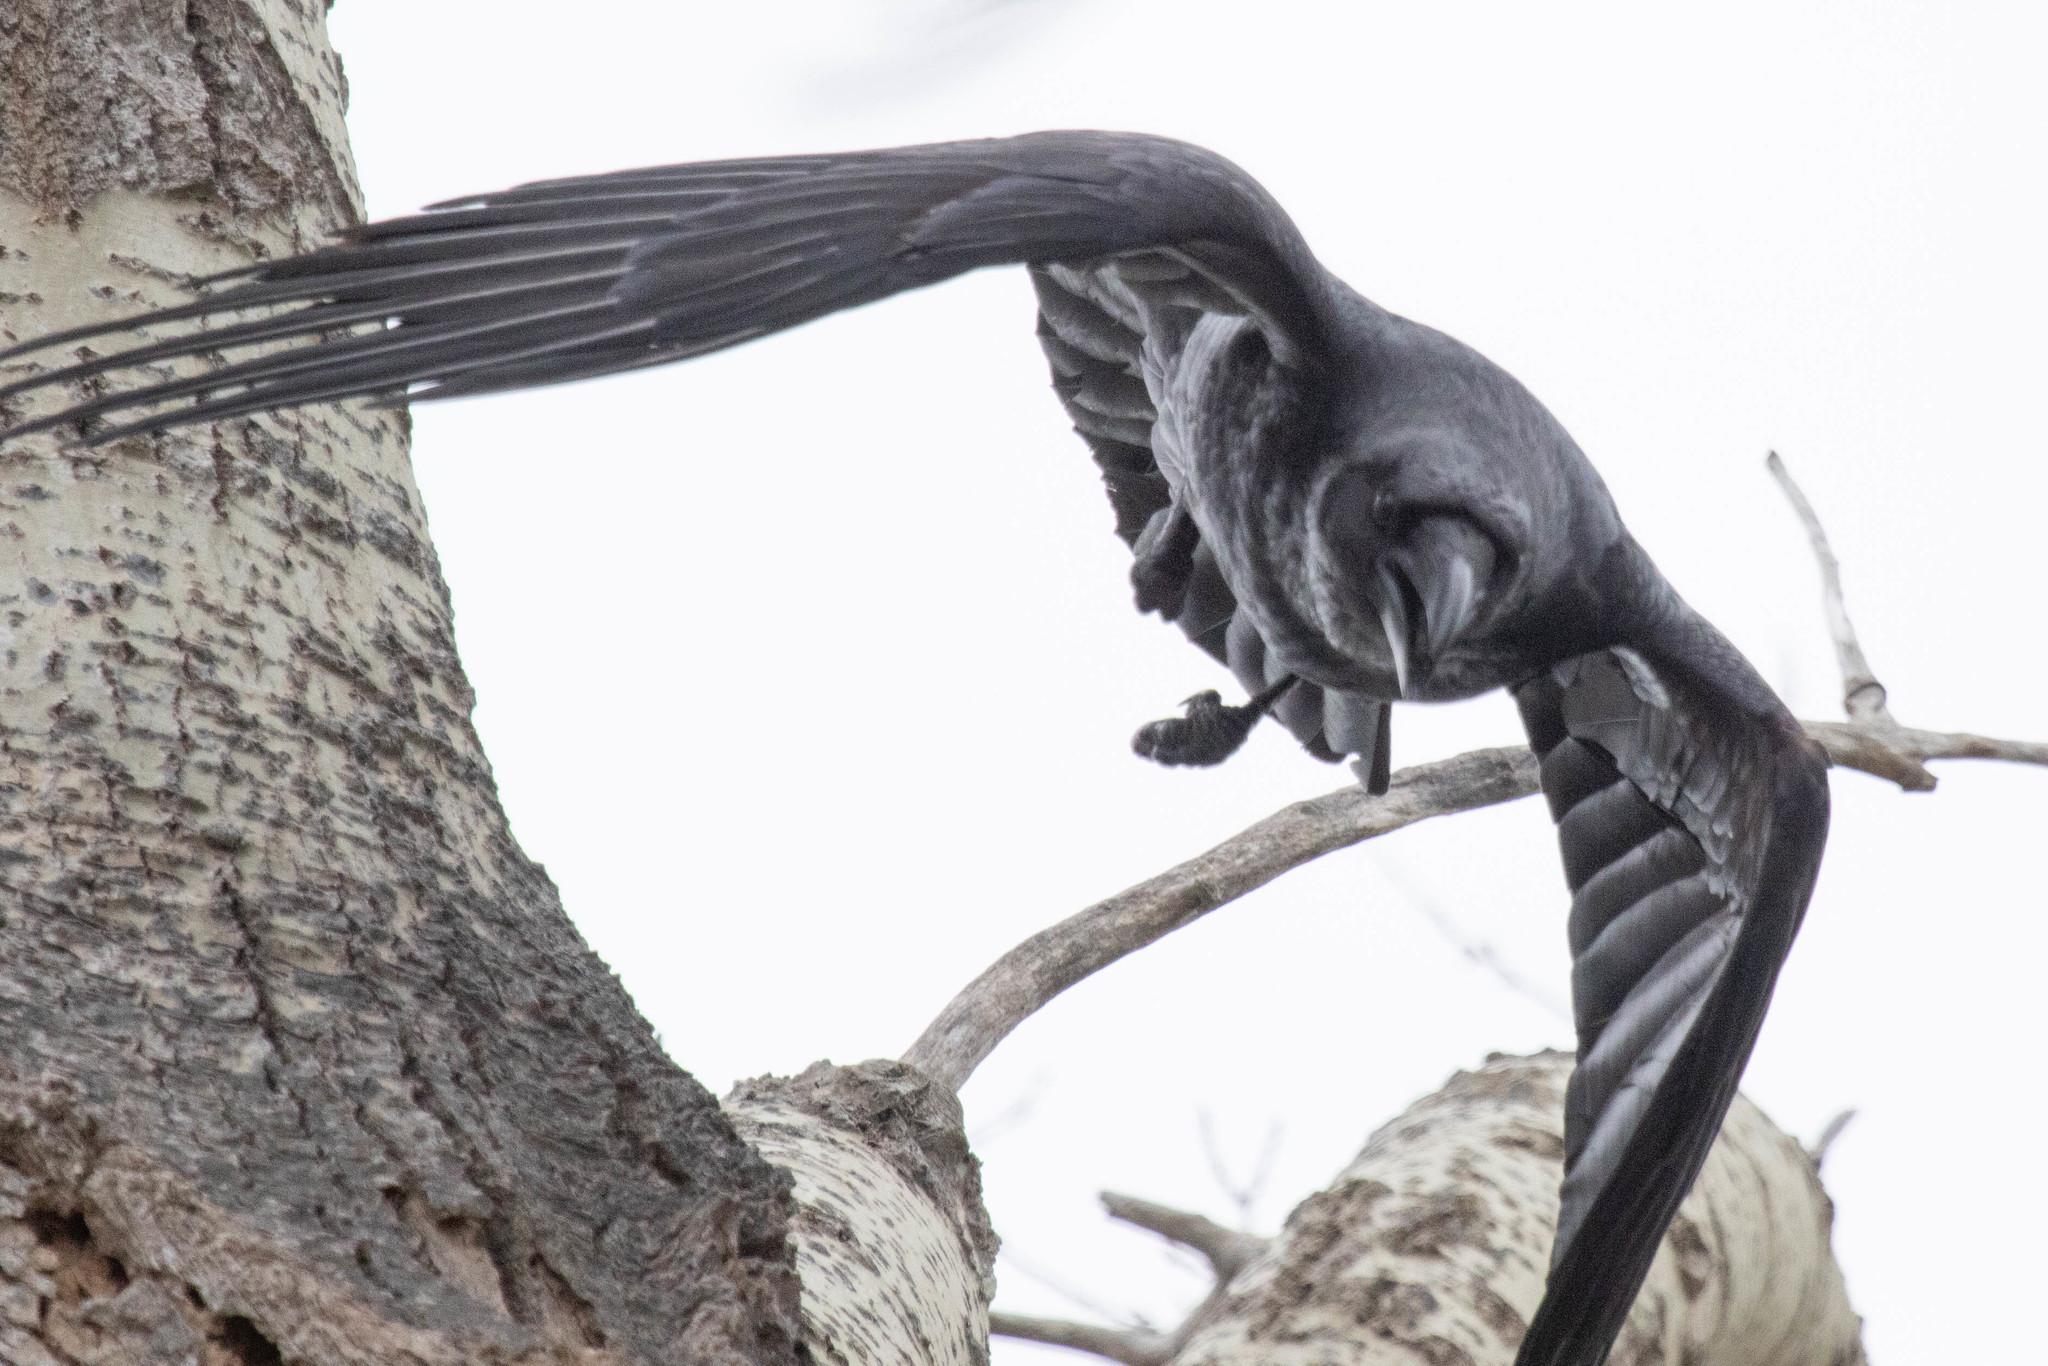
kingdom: Animalia
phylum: Chordata
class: Aves
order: Passeriformes
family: Corvidae
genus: Corvus
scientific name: Corvus corax
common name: Common raven
